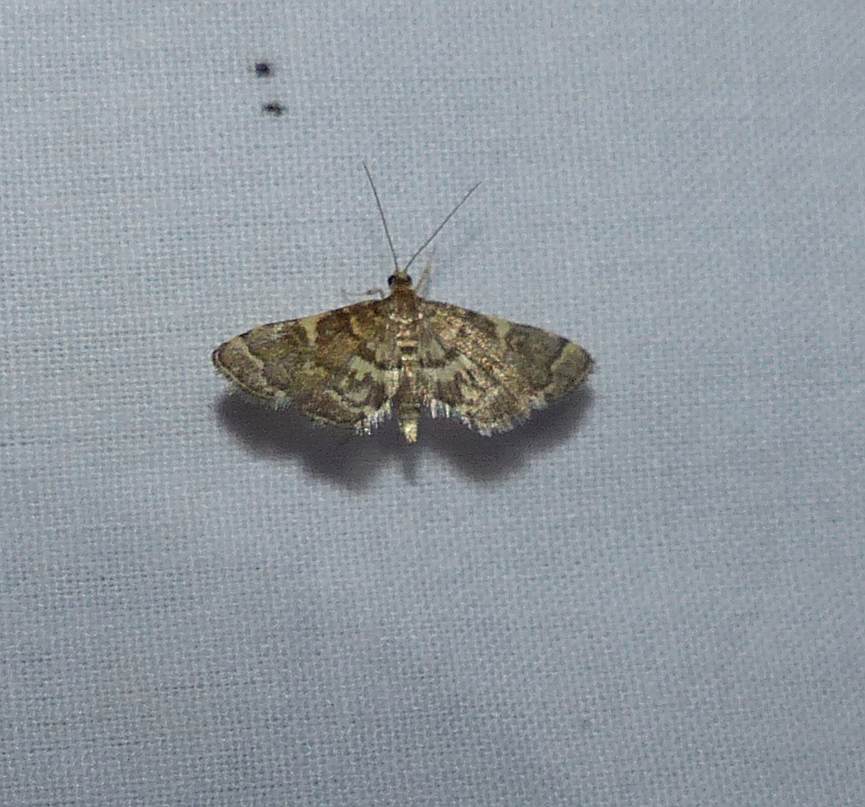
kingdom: Animalia
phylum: Arthropoda
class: Insecta
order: Lepidoptera
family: Crambidae
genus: Anageshna
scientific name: Anageshna primordialis
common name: Yellow-spotted webworm moth
